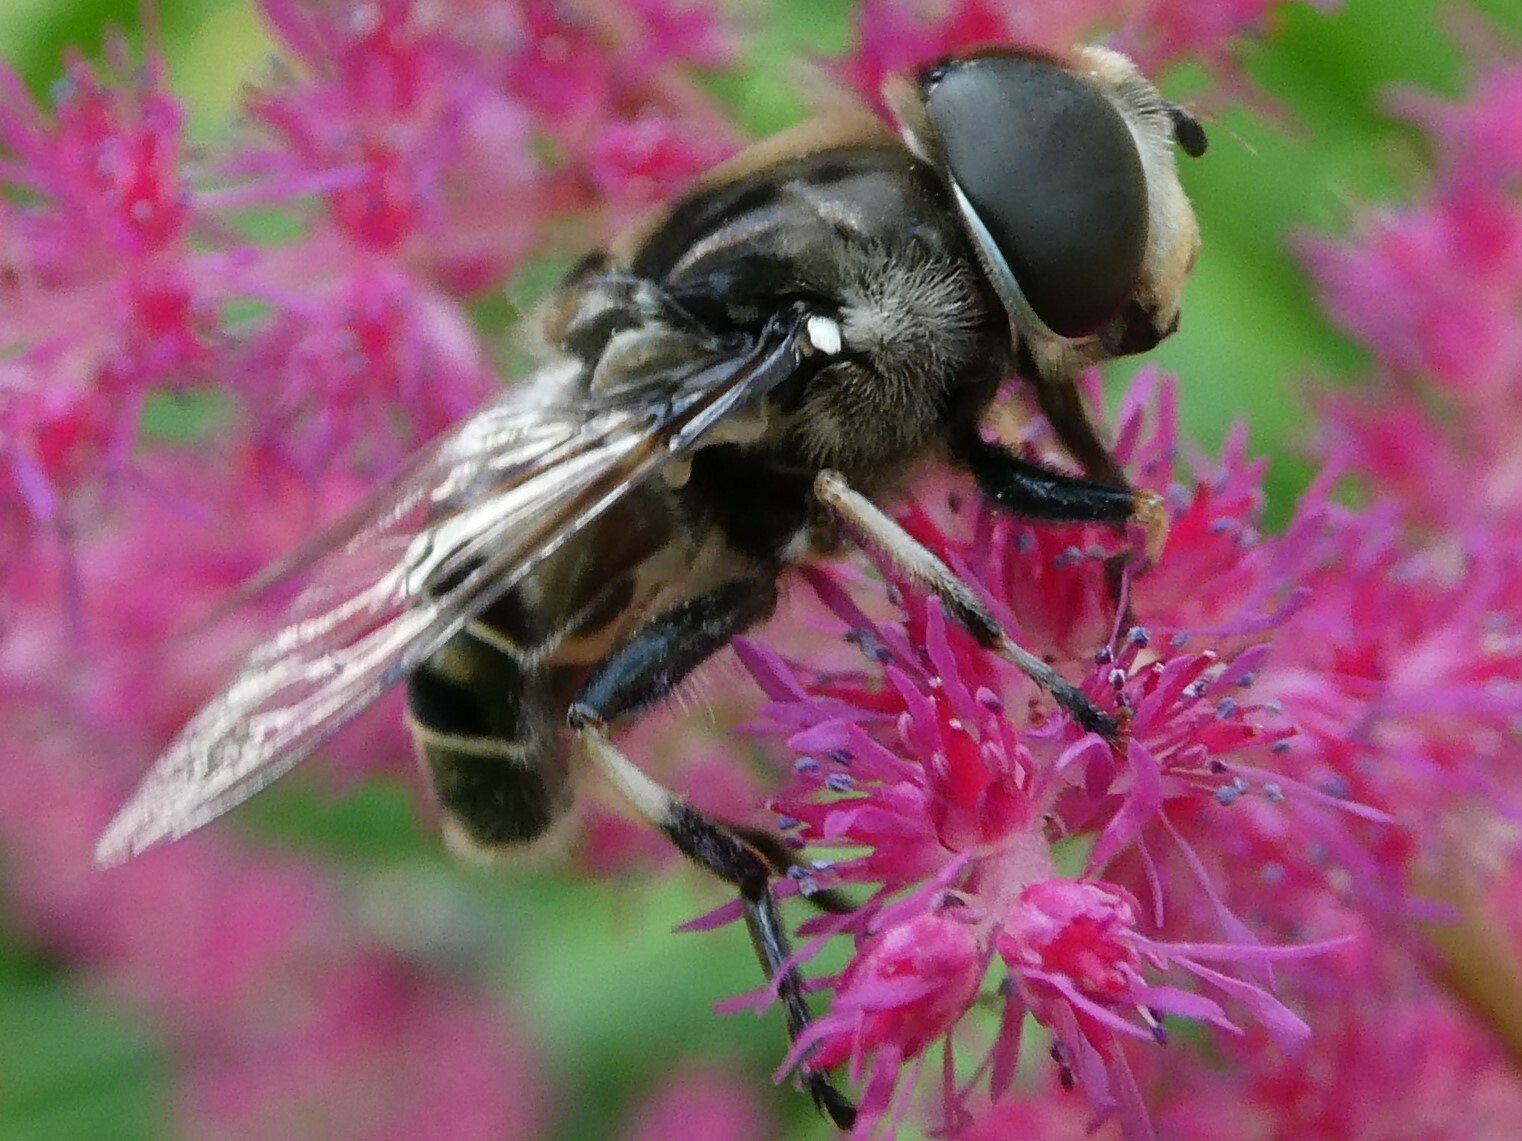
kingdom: Animalia
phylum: Arthropoda
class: Insecta
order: Diptera
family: Syrphidae
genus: Eristalis
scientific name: Eristalis dimidiata
